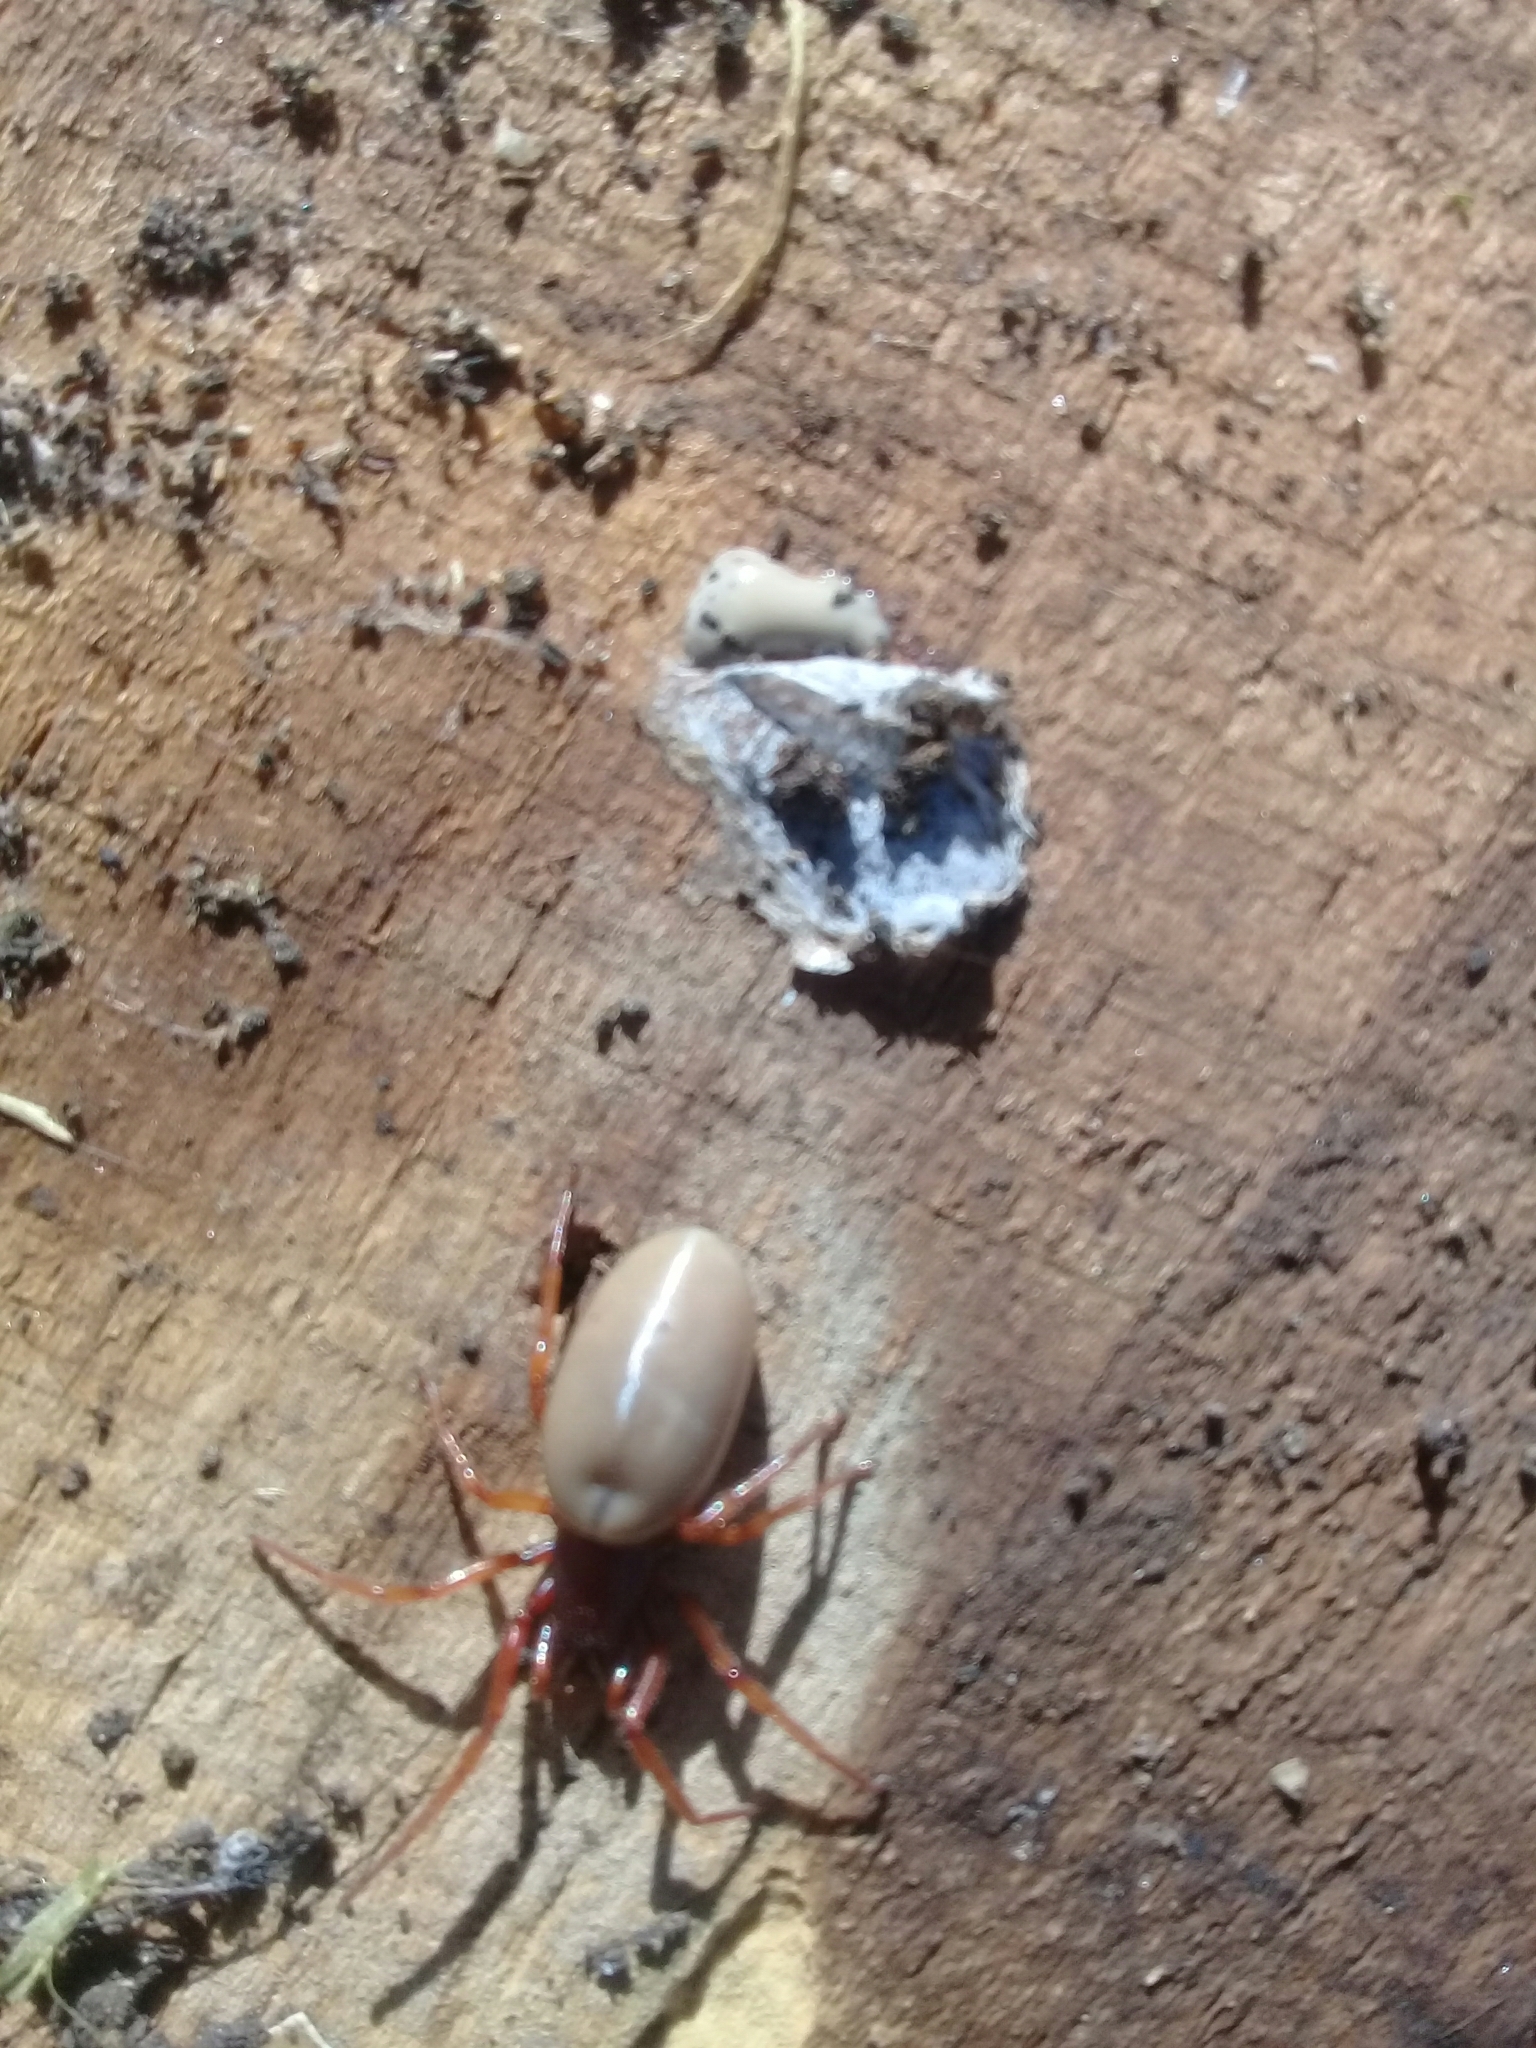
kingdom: Animalia
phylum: Arthropoda
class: Arachnida
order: Araneae
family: Dysderidae
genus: Dysdera
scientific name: Dysdera crocata
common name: Woodlouse spider
